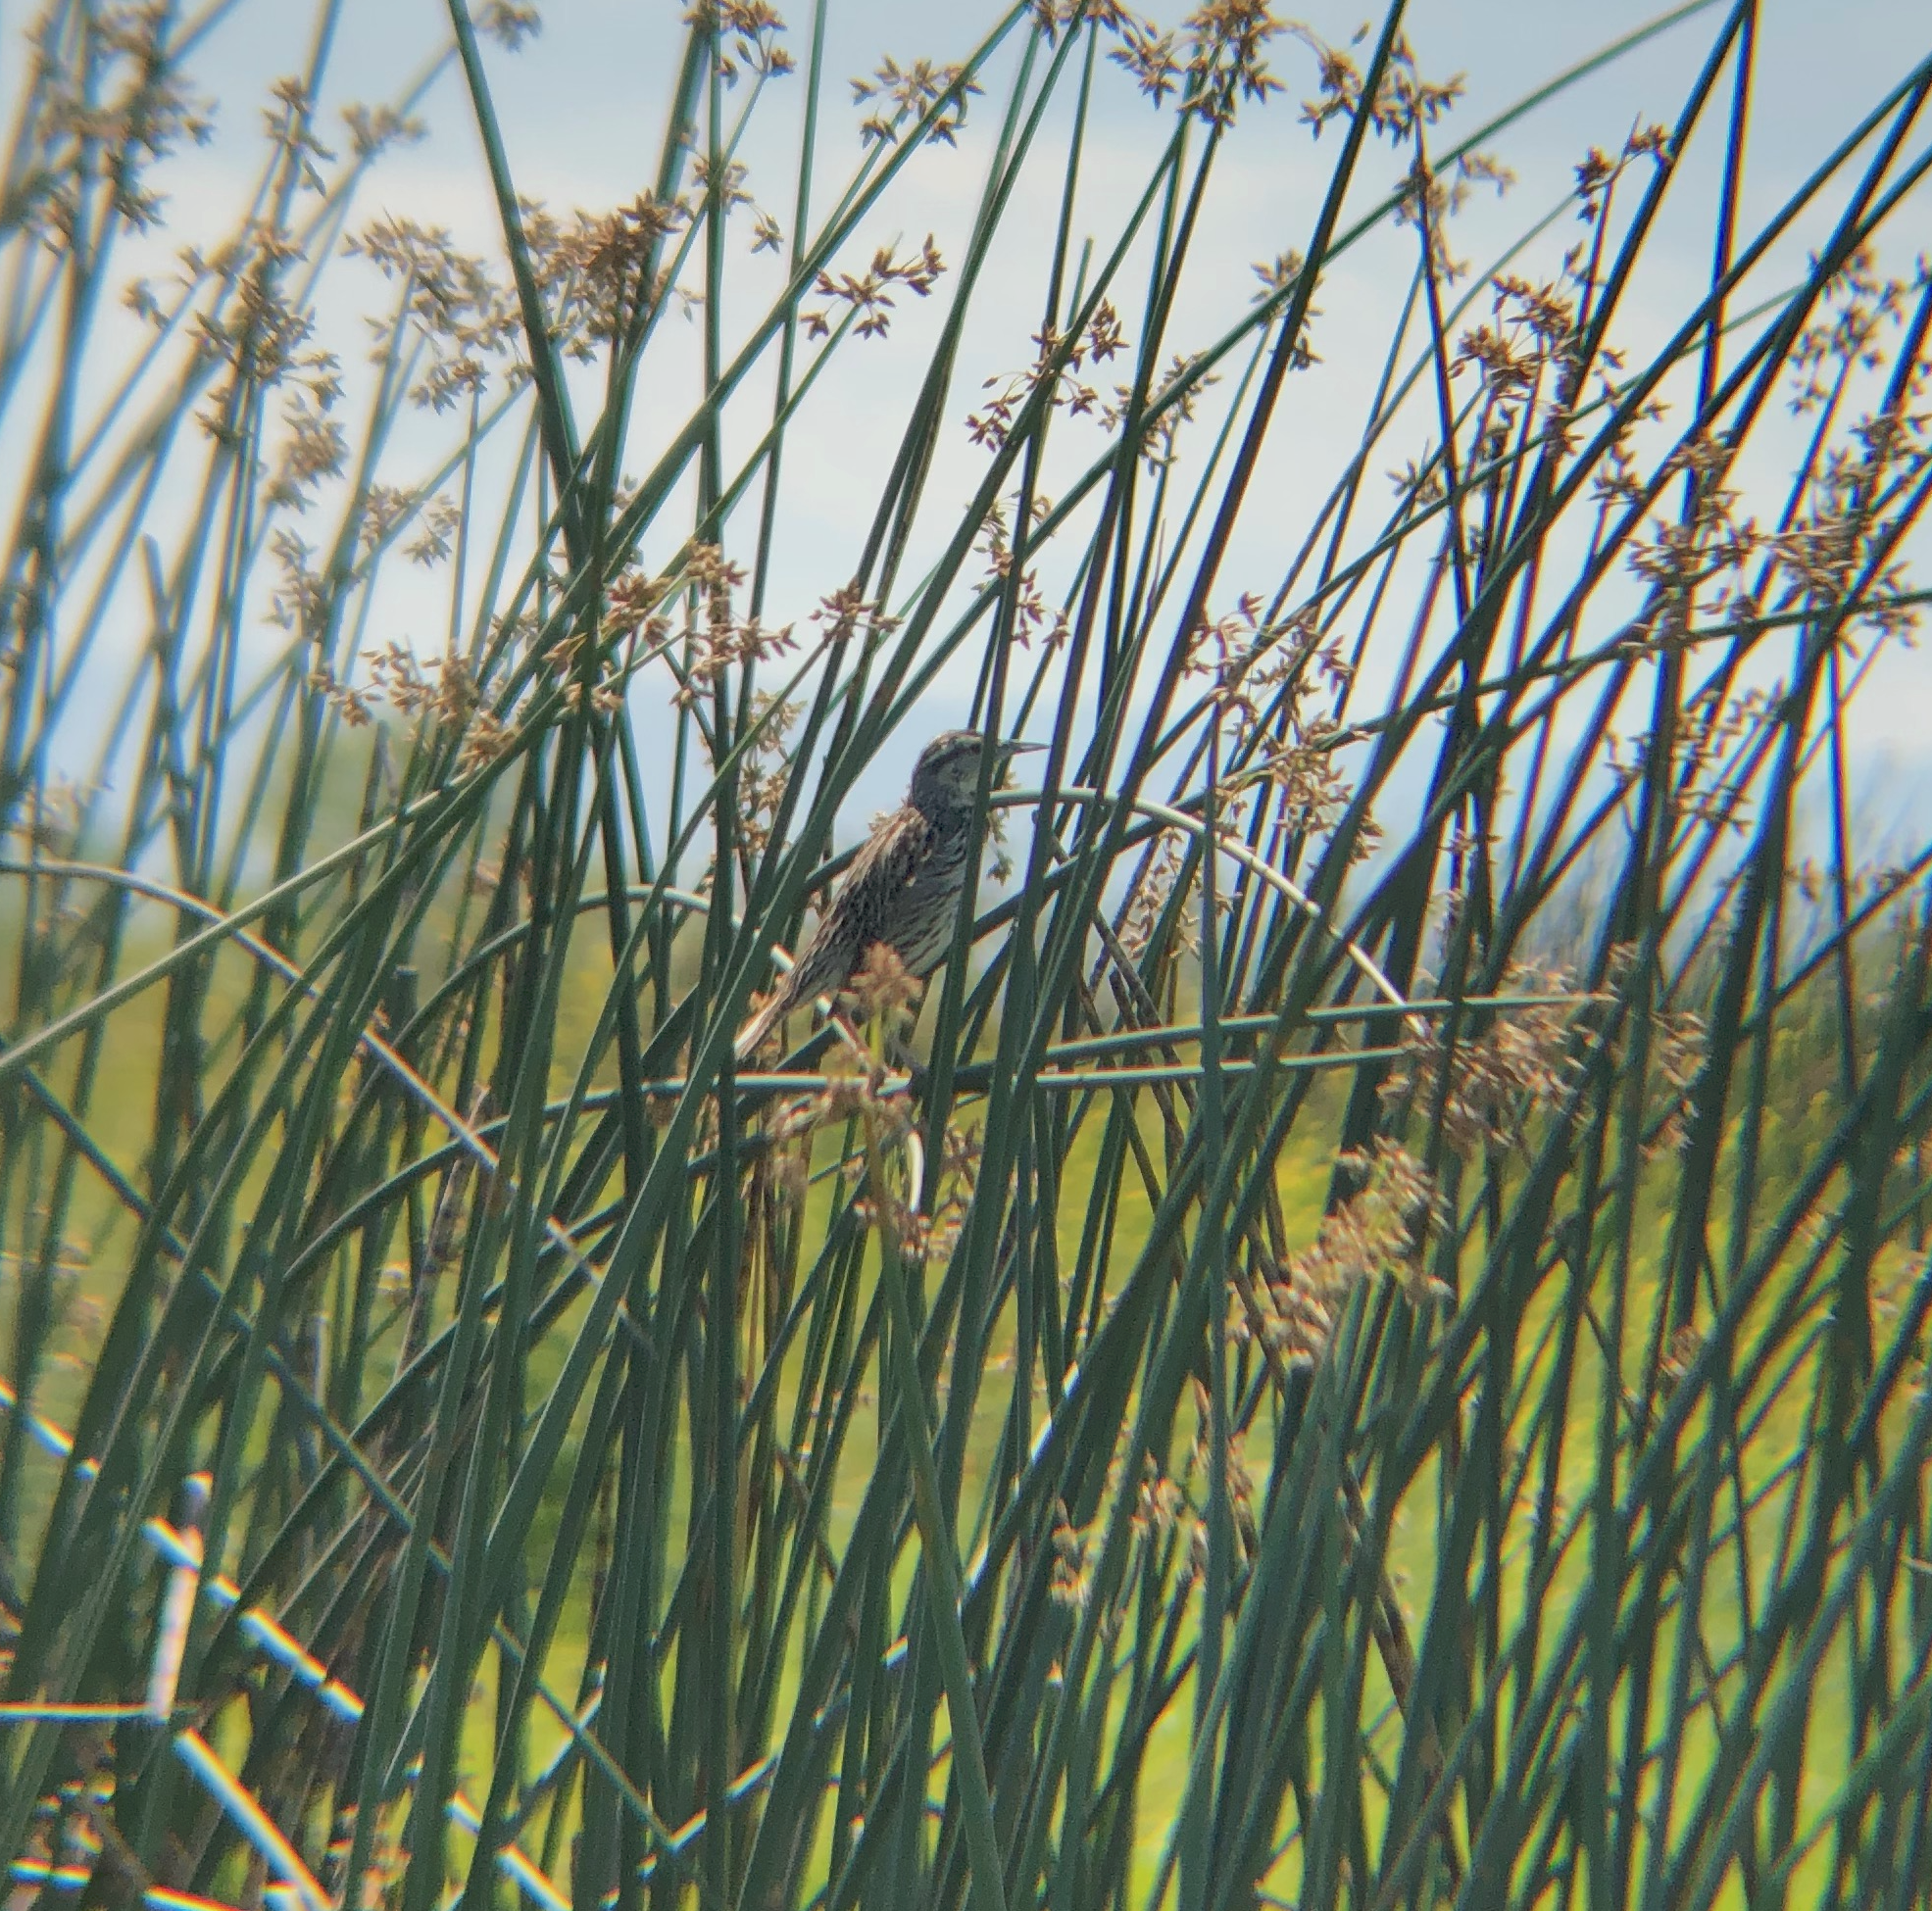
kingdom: Animalia
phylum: Chordata
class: Aves
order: Passeriformes
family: Icteridae
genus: Sturnella
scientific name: Sturnella neglecta
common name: Western meadowlark
